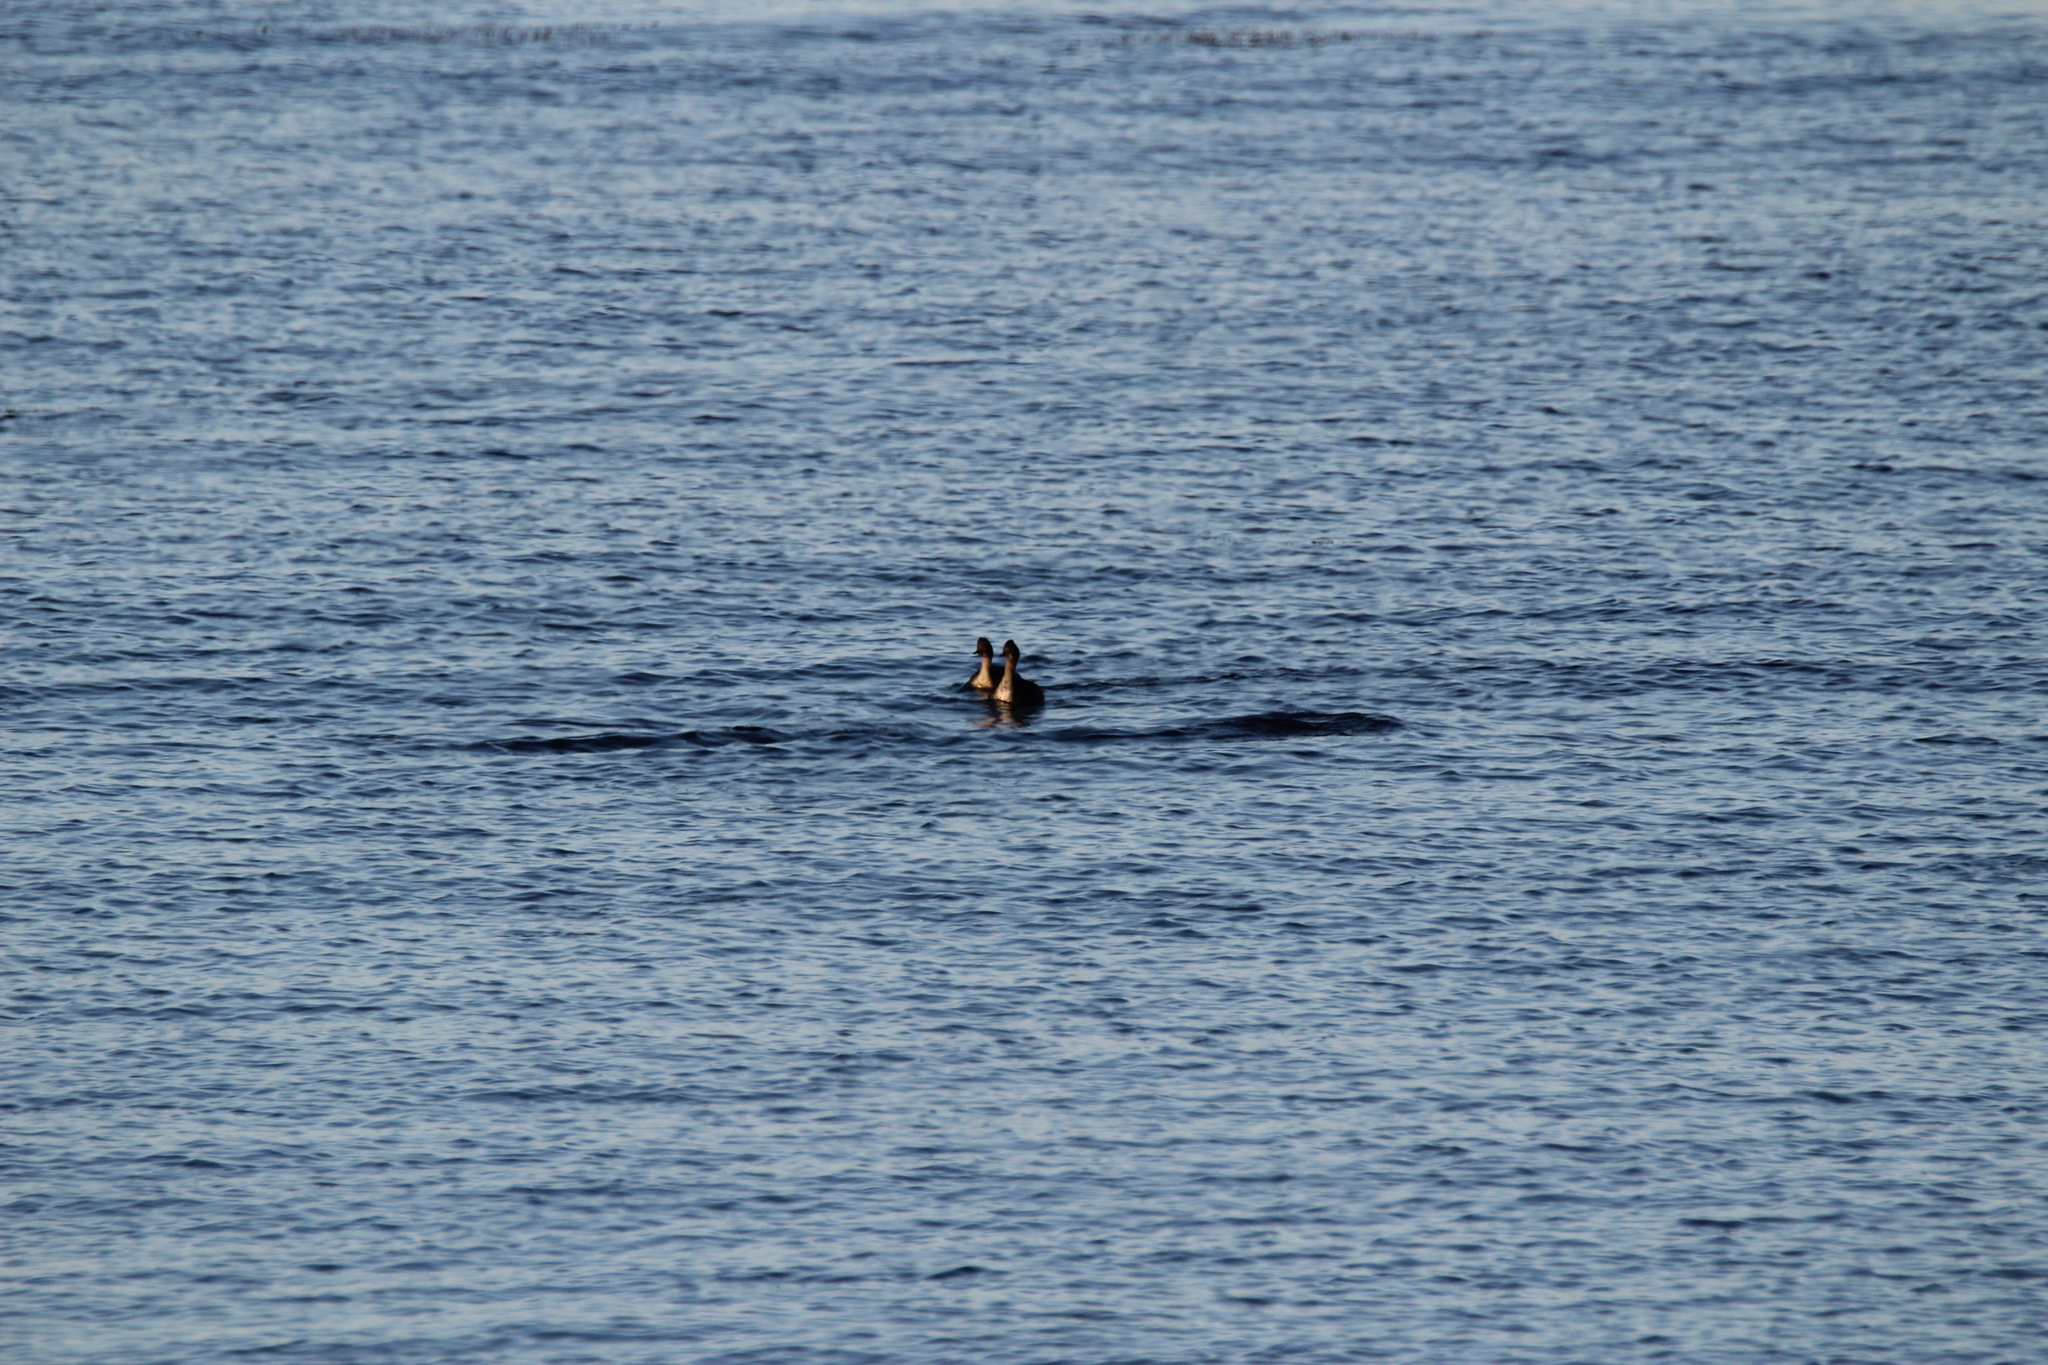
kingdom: Animalia
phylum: Chordata
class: Aves
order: Podicipediformes
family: Podicipedidae
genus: Podiceps
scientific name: Podiceps nigricollis
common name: Black-necked grebe
